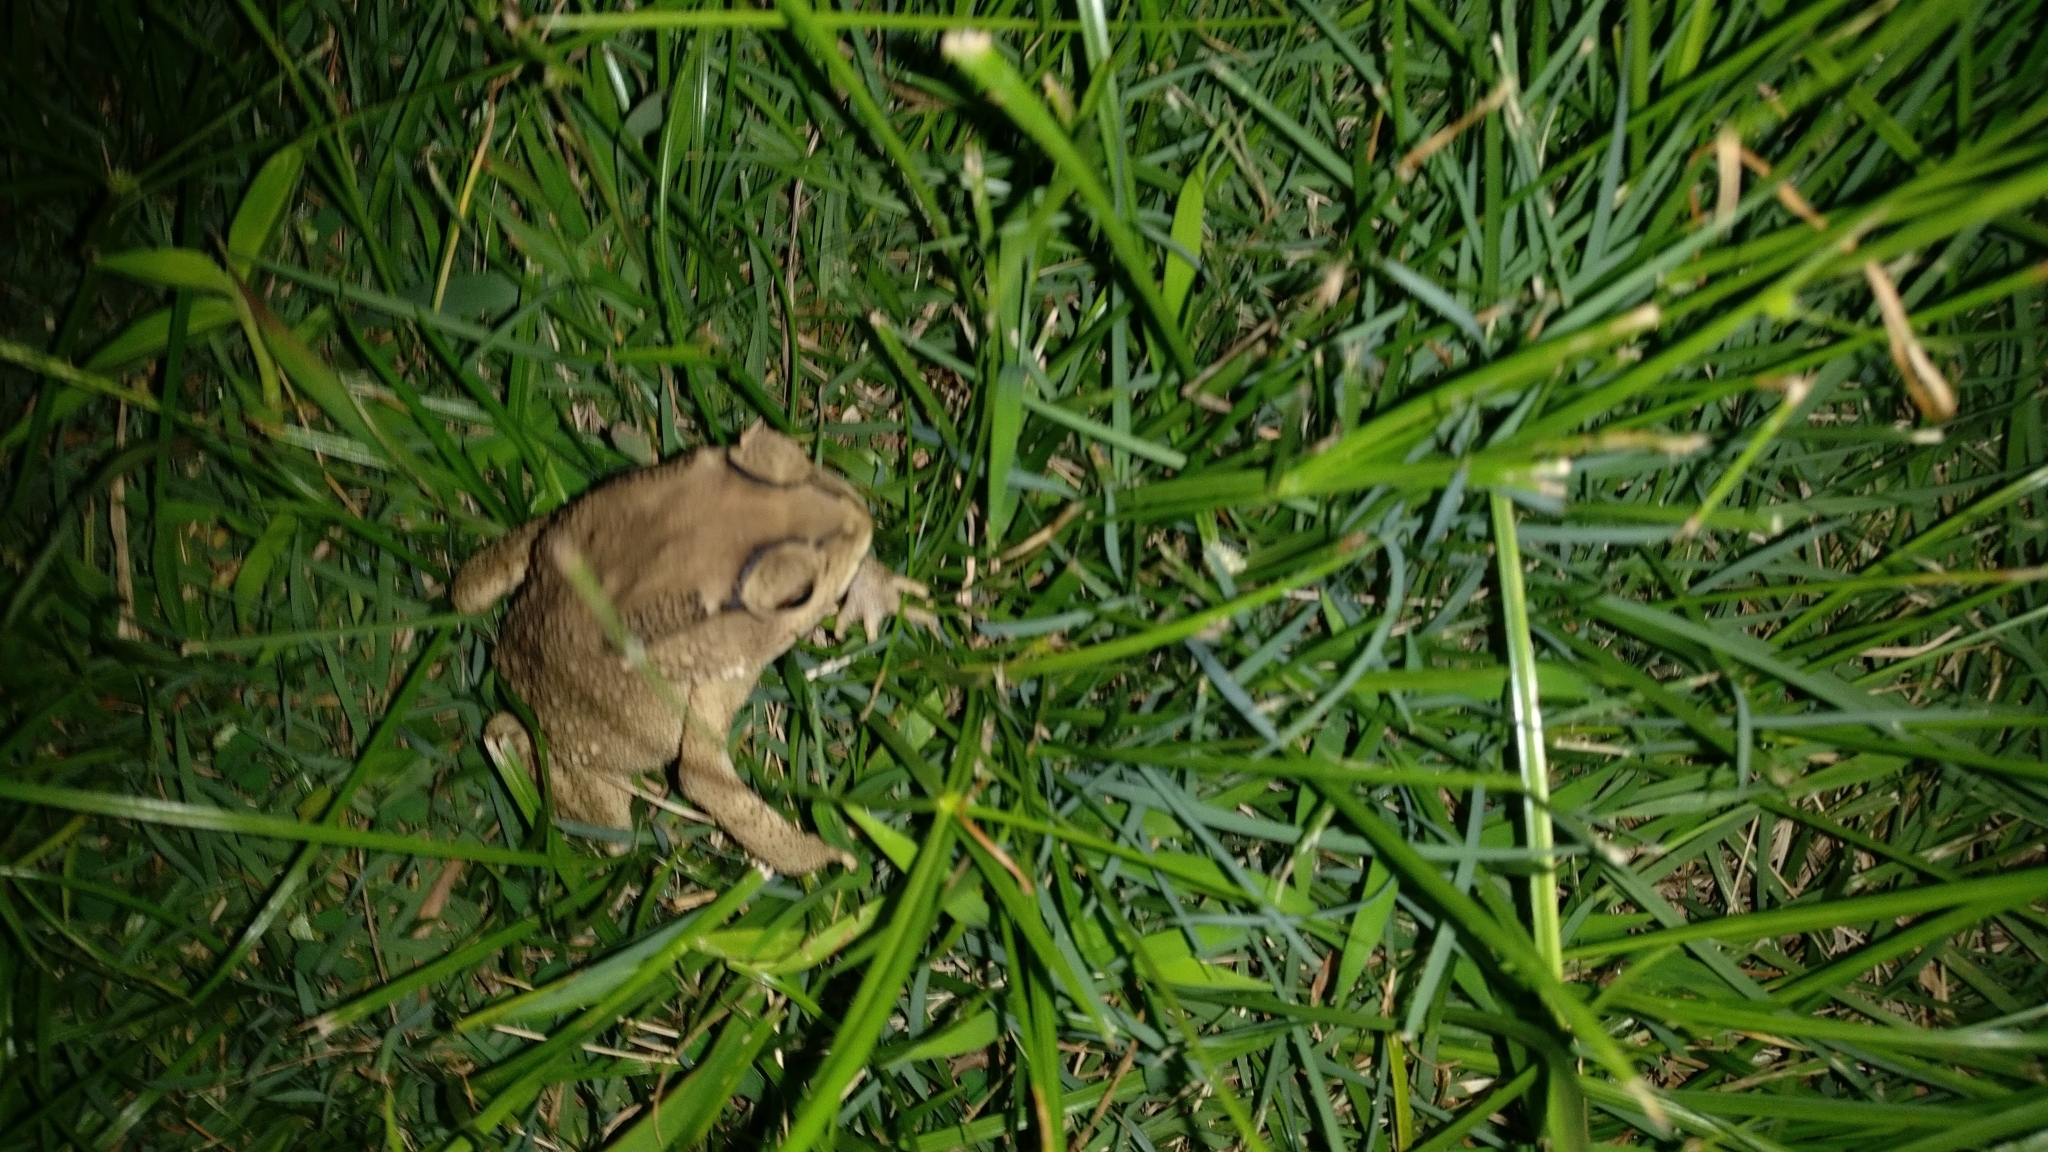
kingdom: Animalia
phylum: Chordata
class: Amphibia
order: Anura
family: Bufonidae
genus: Duttaphrynus
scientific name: Duttaphrynus melanostictus
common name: Common sunda toad
